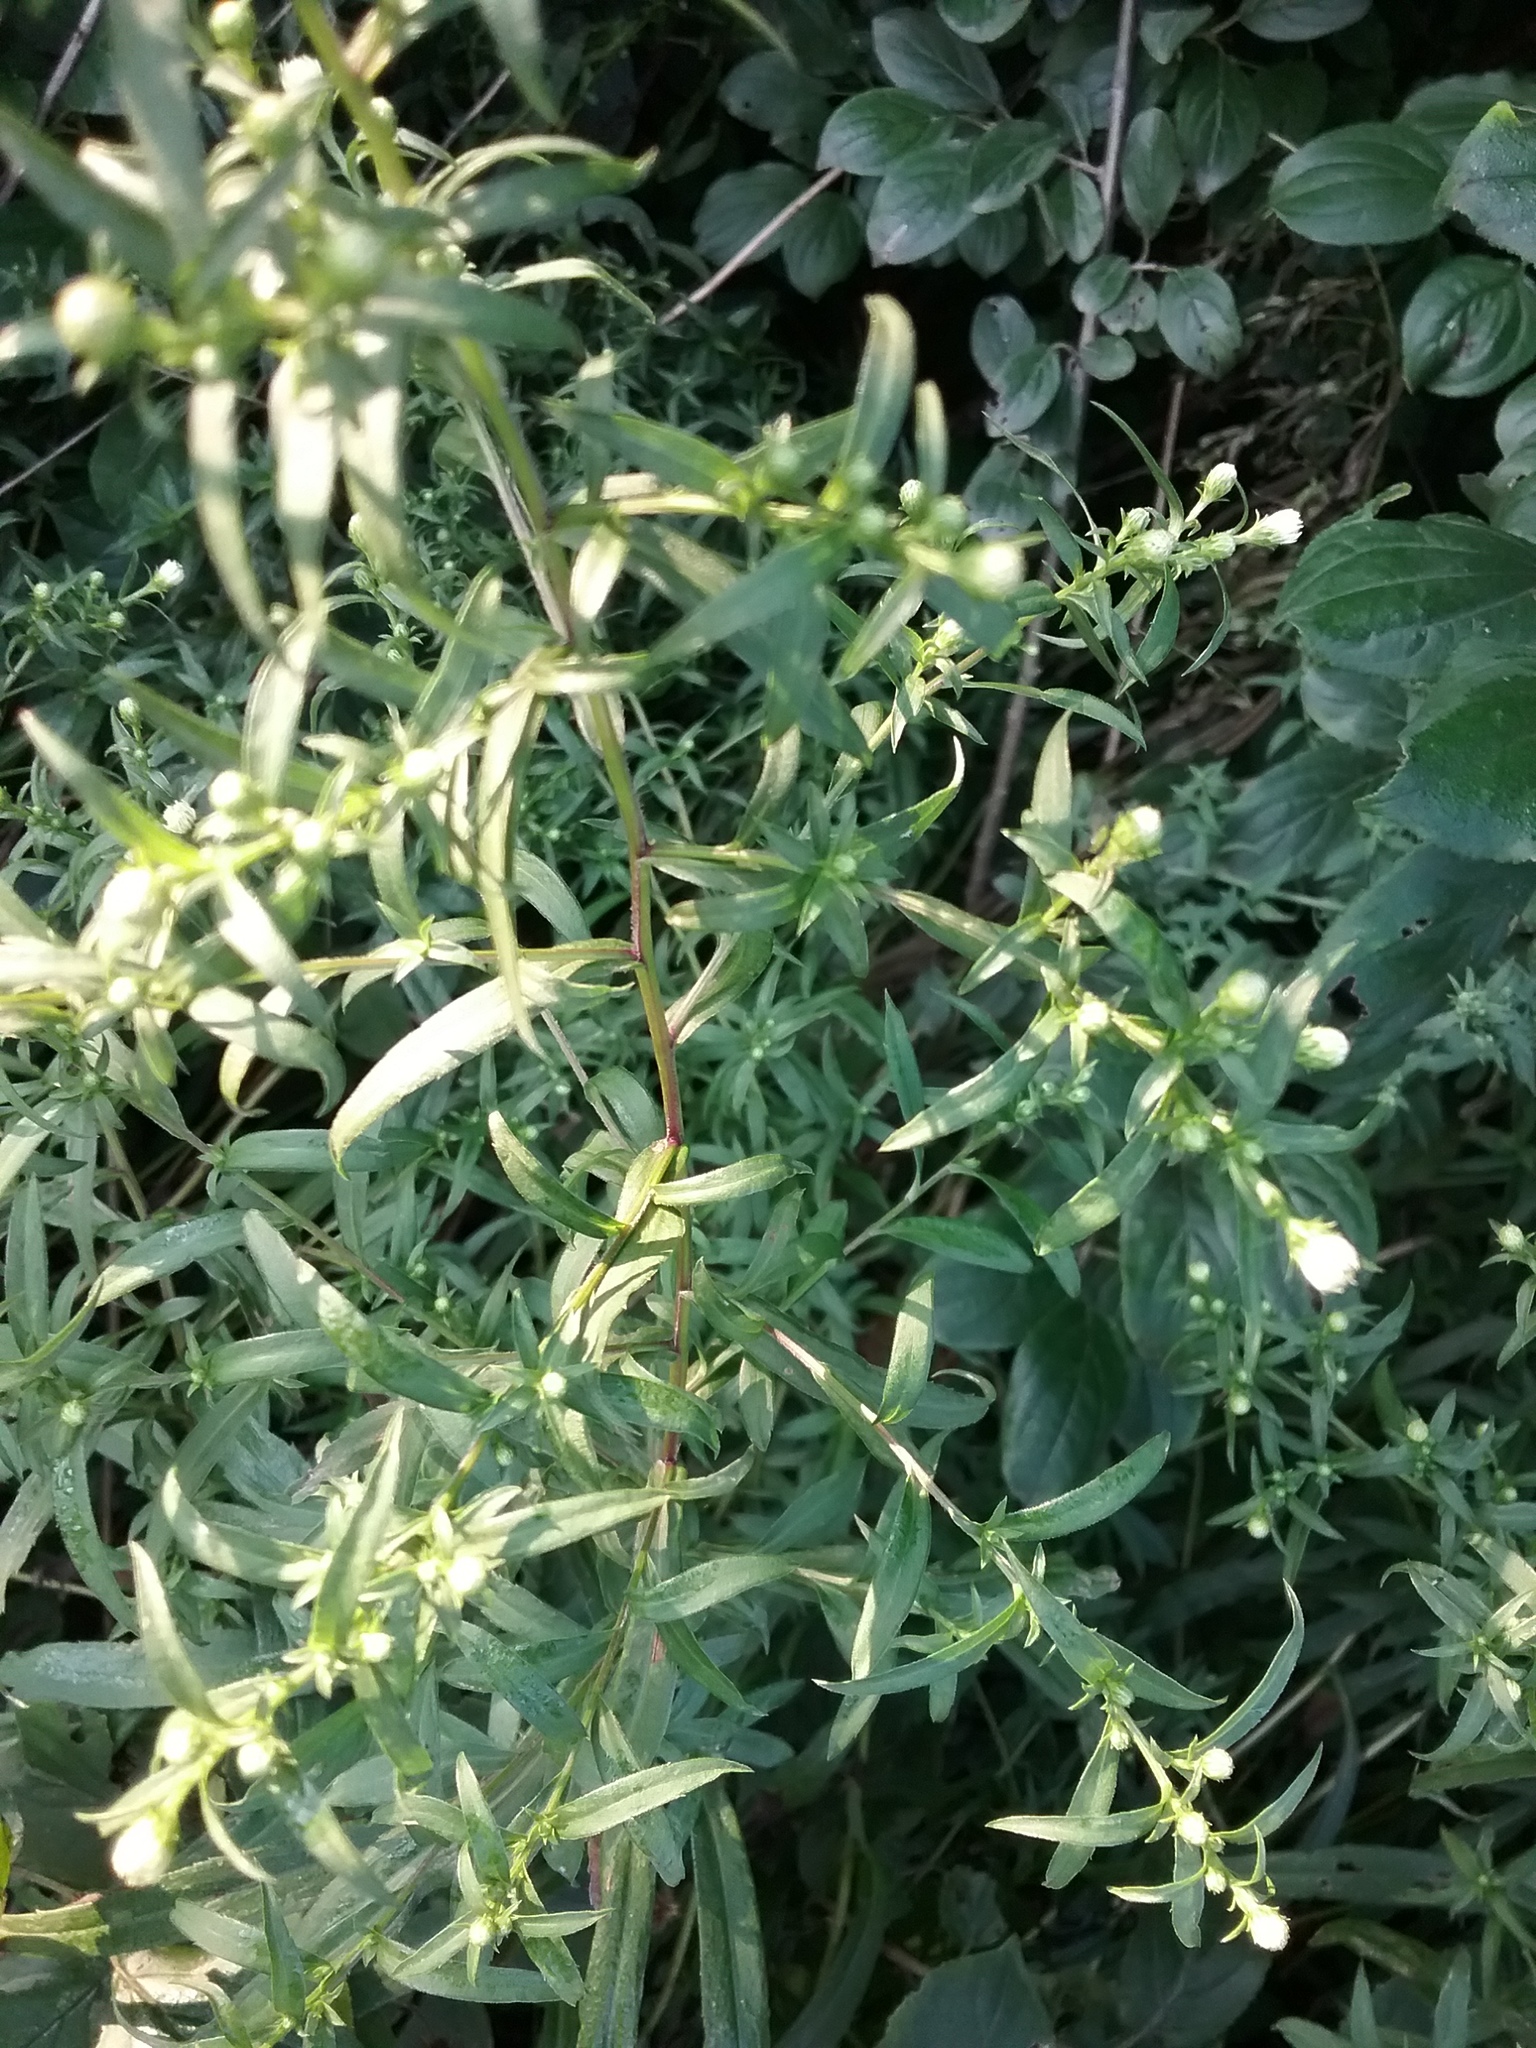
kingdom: Plantae
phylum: Tracheophyta
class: Magnoliopsida
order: Asterales
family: Asteraceae
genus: Symphyotrichum
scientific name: Symphyotrichum lanceolatum
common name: Panicled aster
